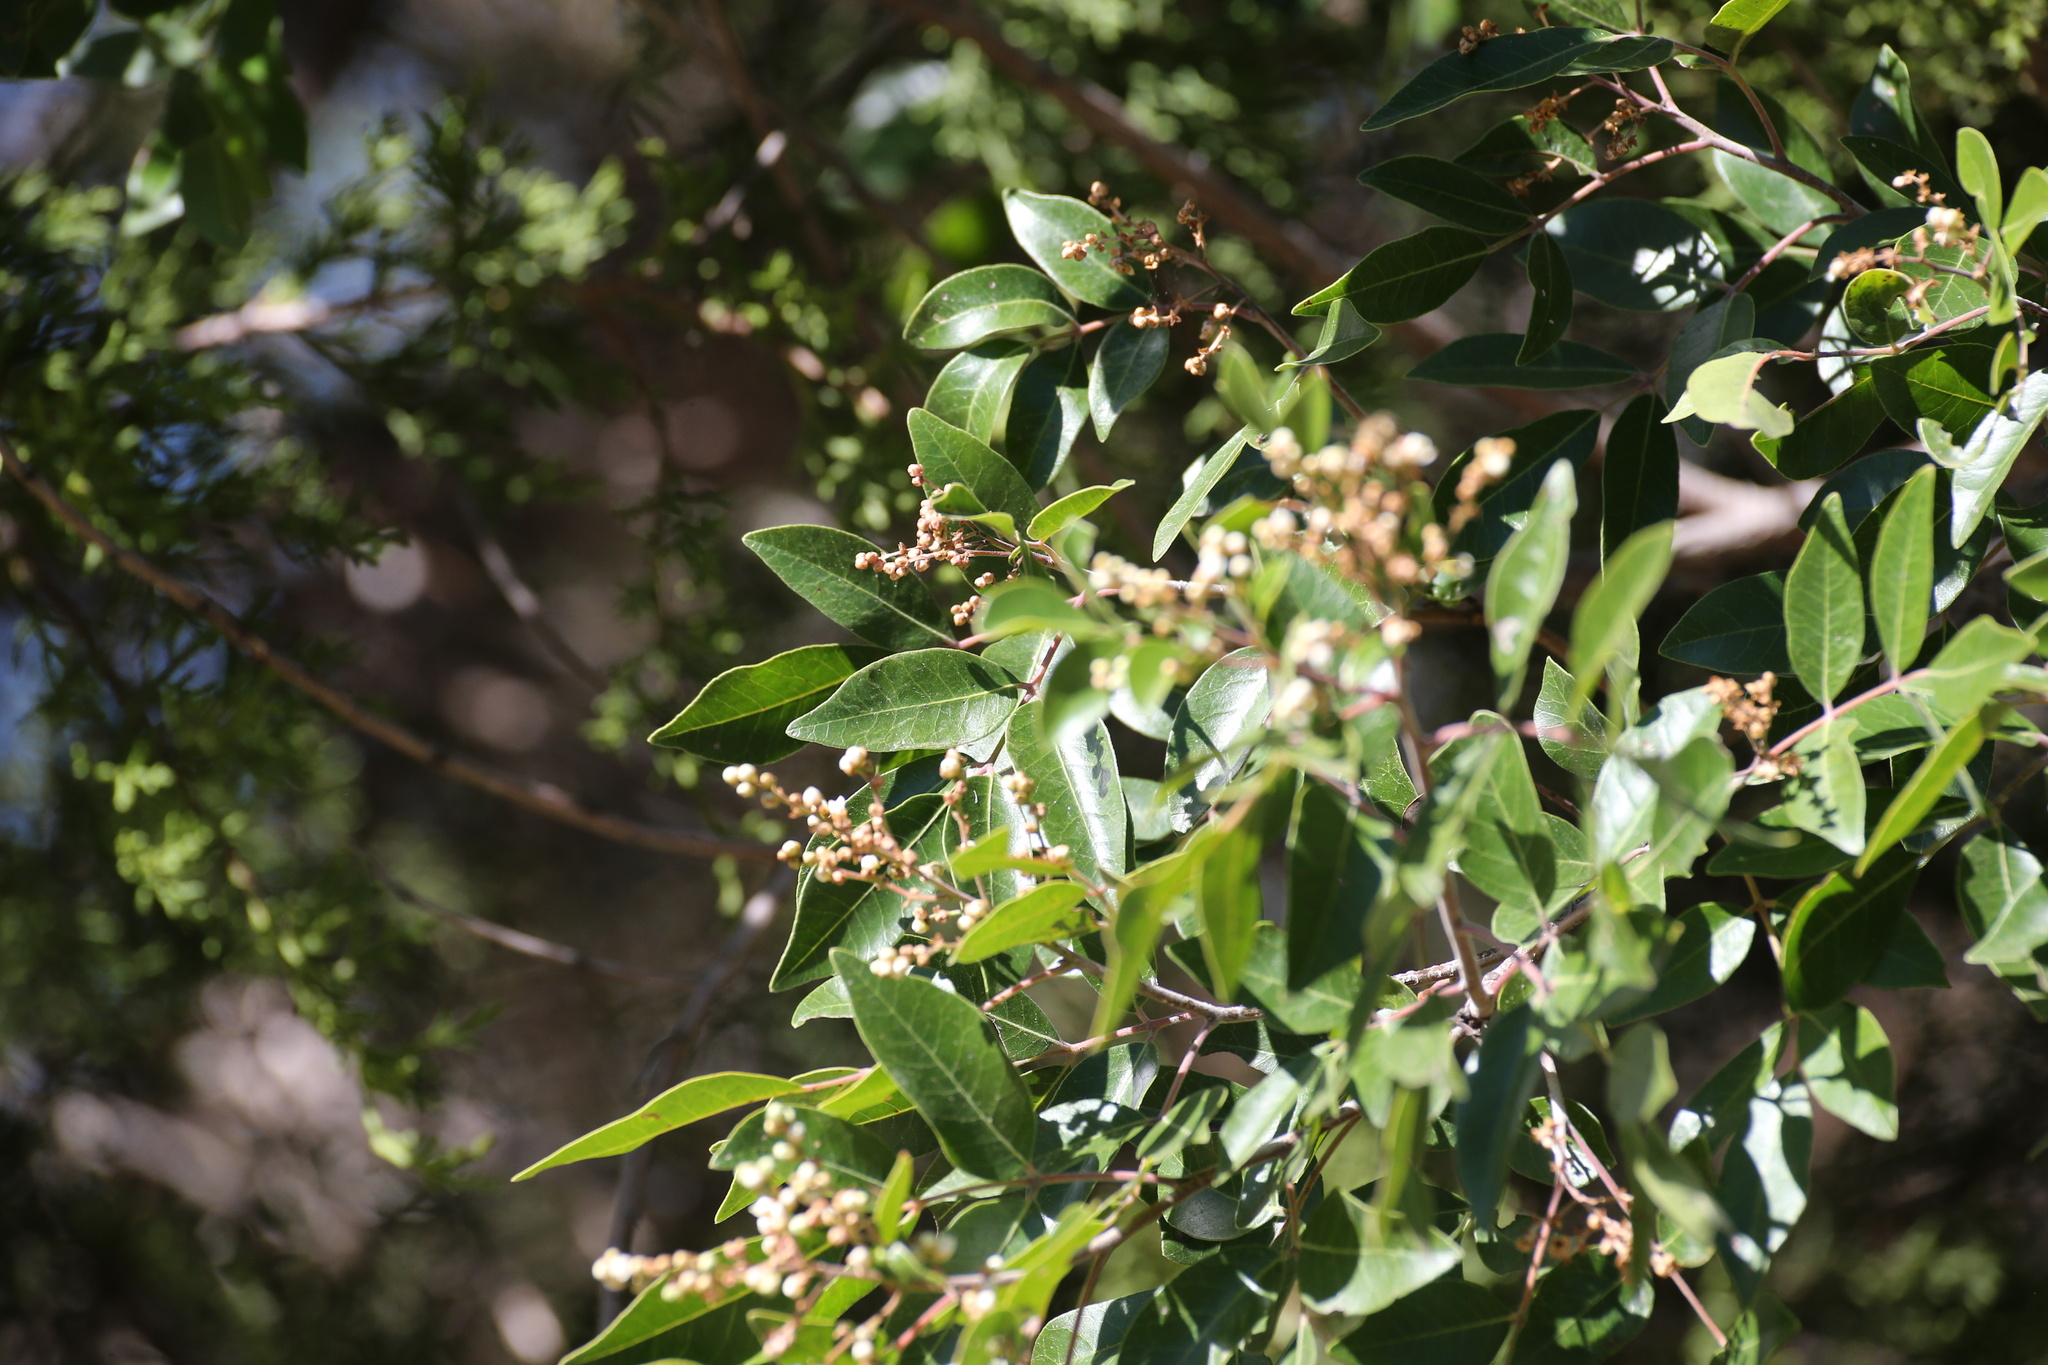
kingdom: Plantae
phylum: Tracheophyta
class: Magnoliopsida
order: Sapindales
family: Anacardiaceae
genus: Rhus
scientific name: Rhus virens
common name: Evergreen sumac
